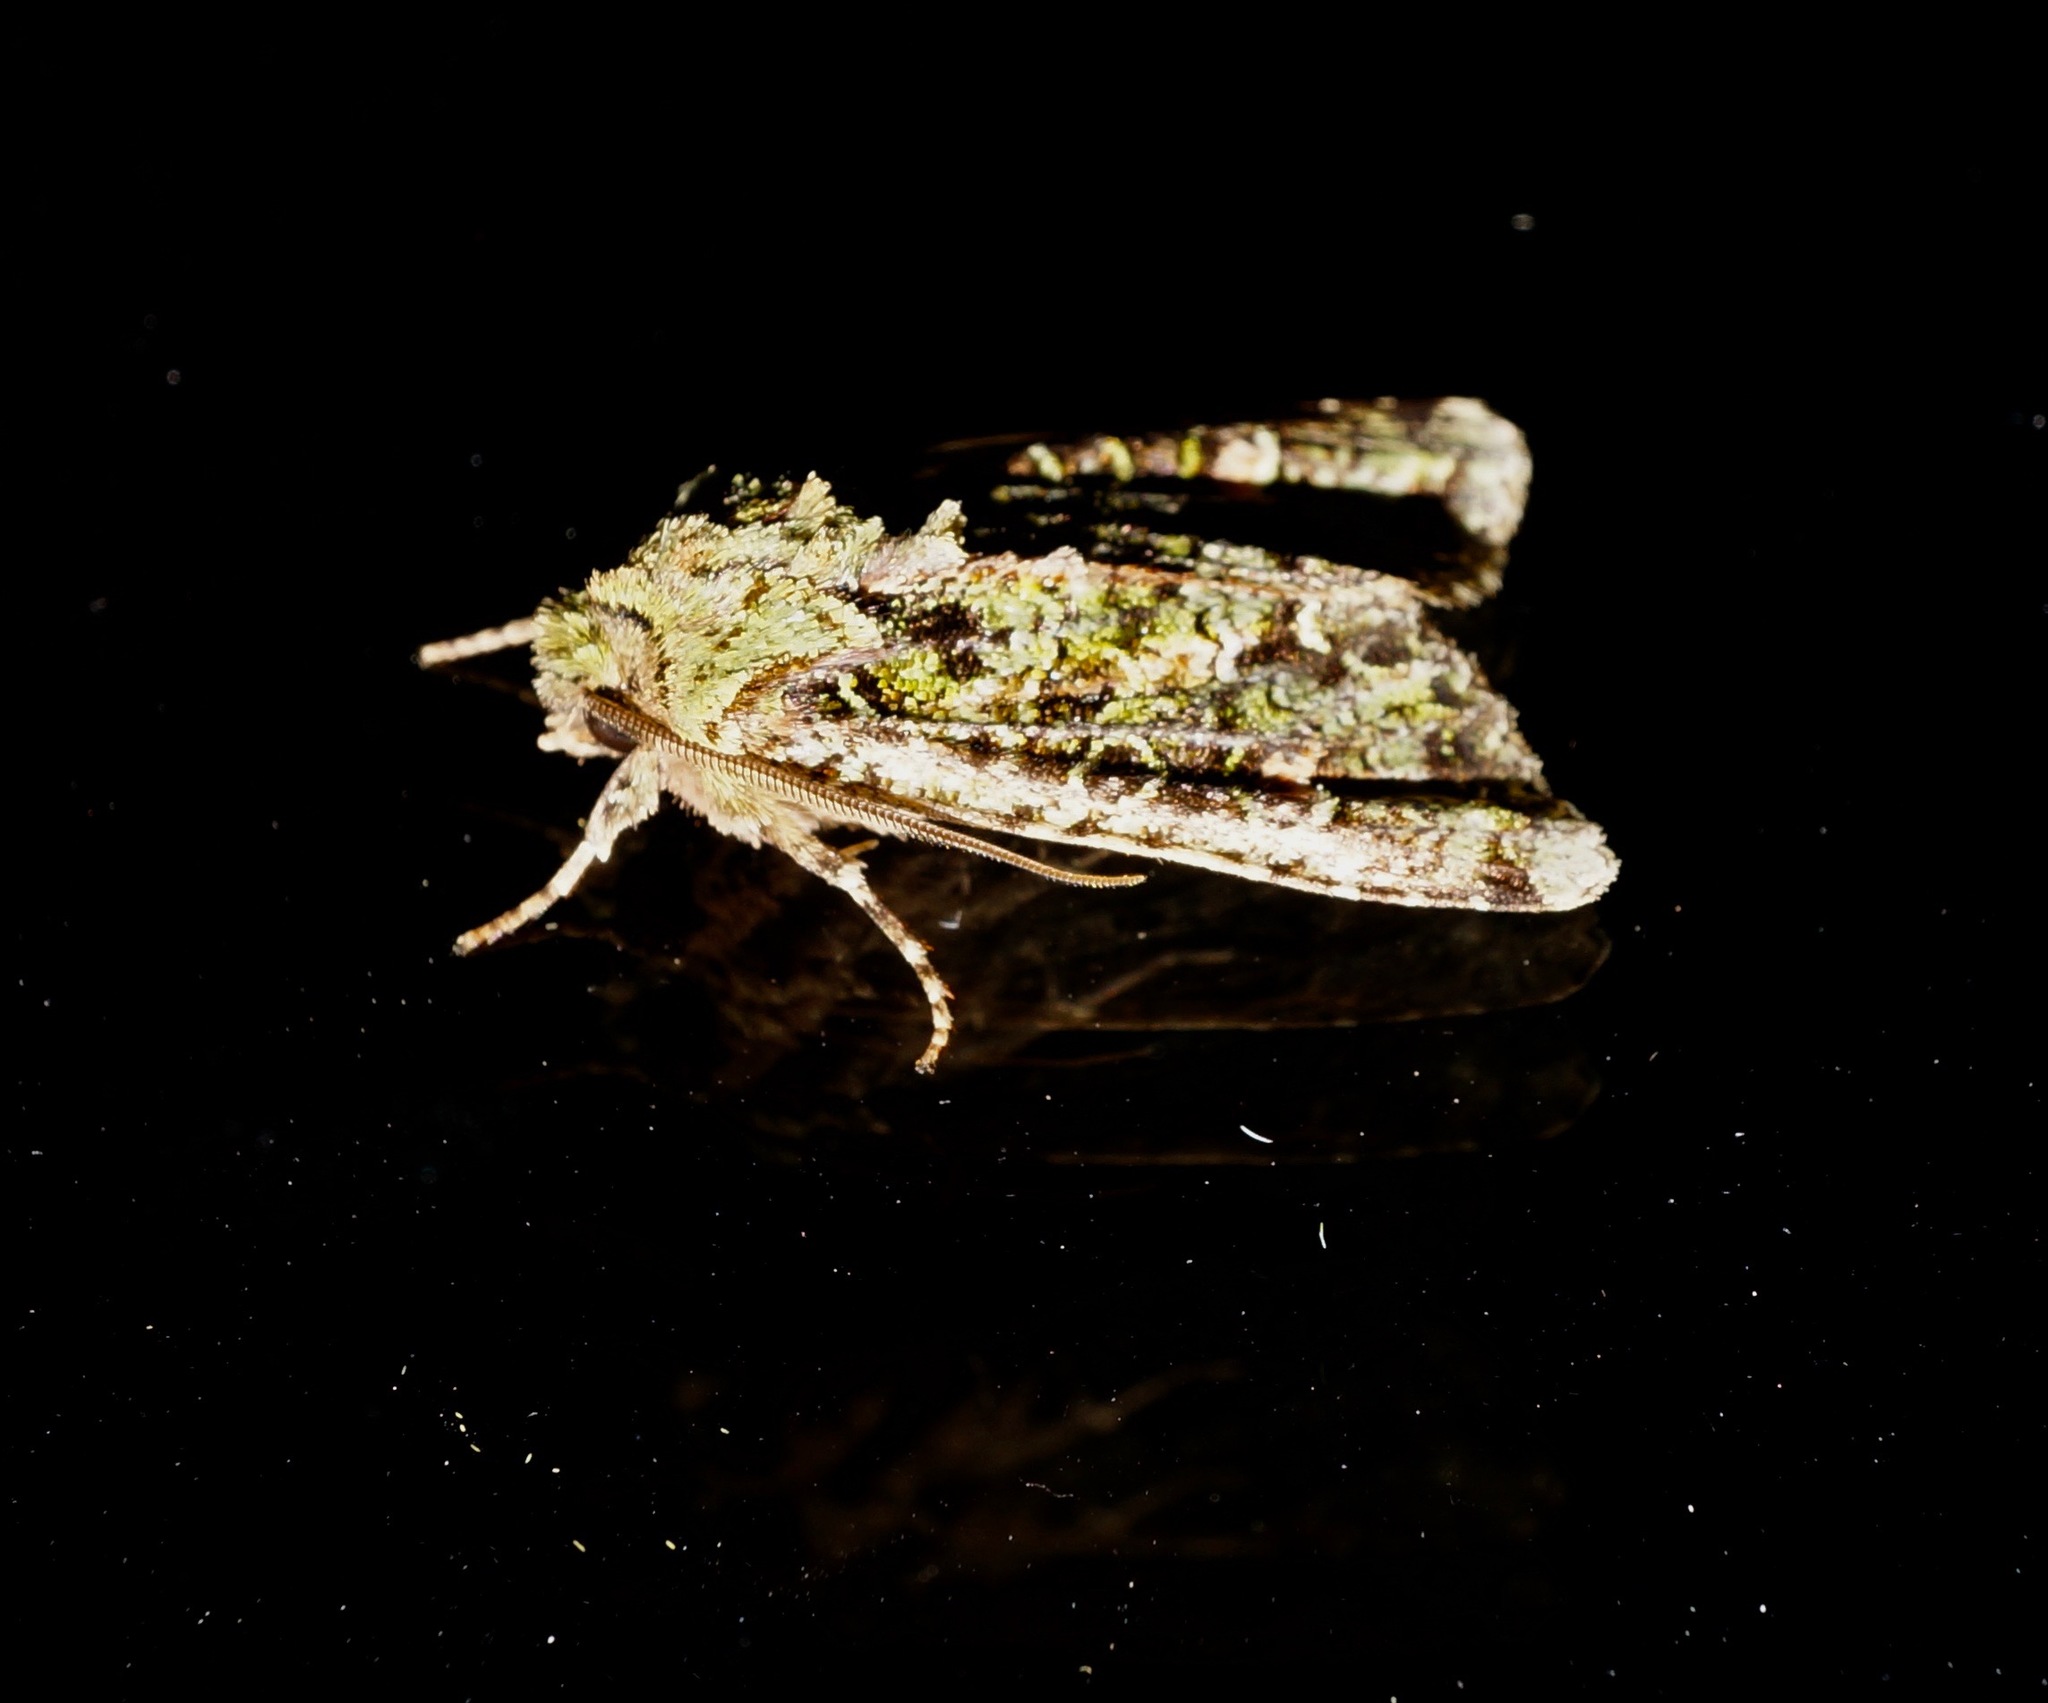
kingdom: Animalia
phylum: Arthropoda
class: Insecta
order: Lepidoptera
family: Noctuidae
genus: Ichneutica
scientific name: Ichneutica
